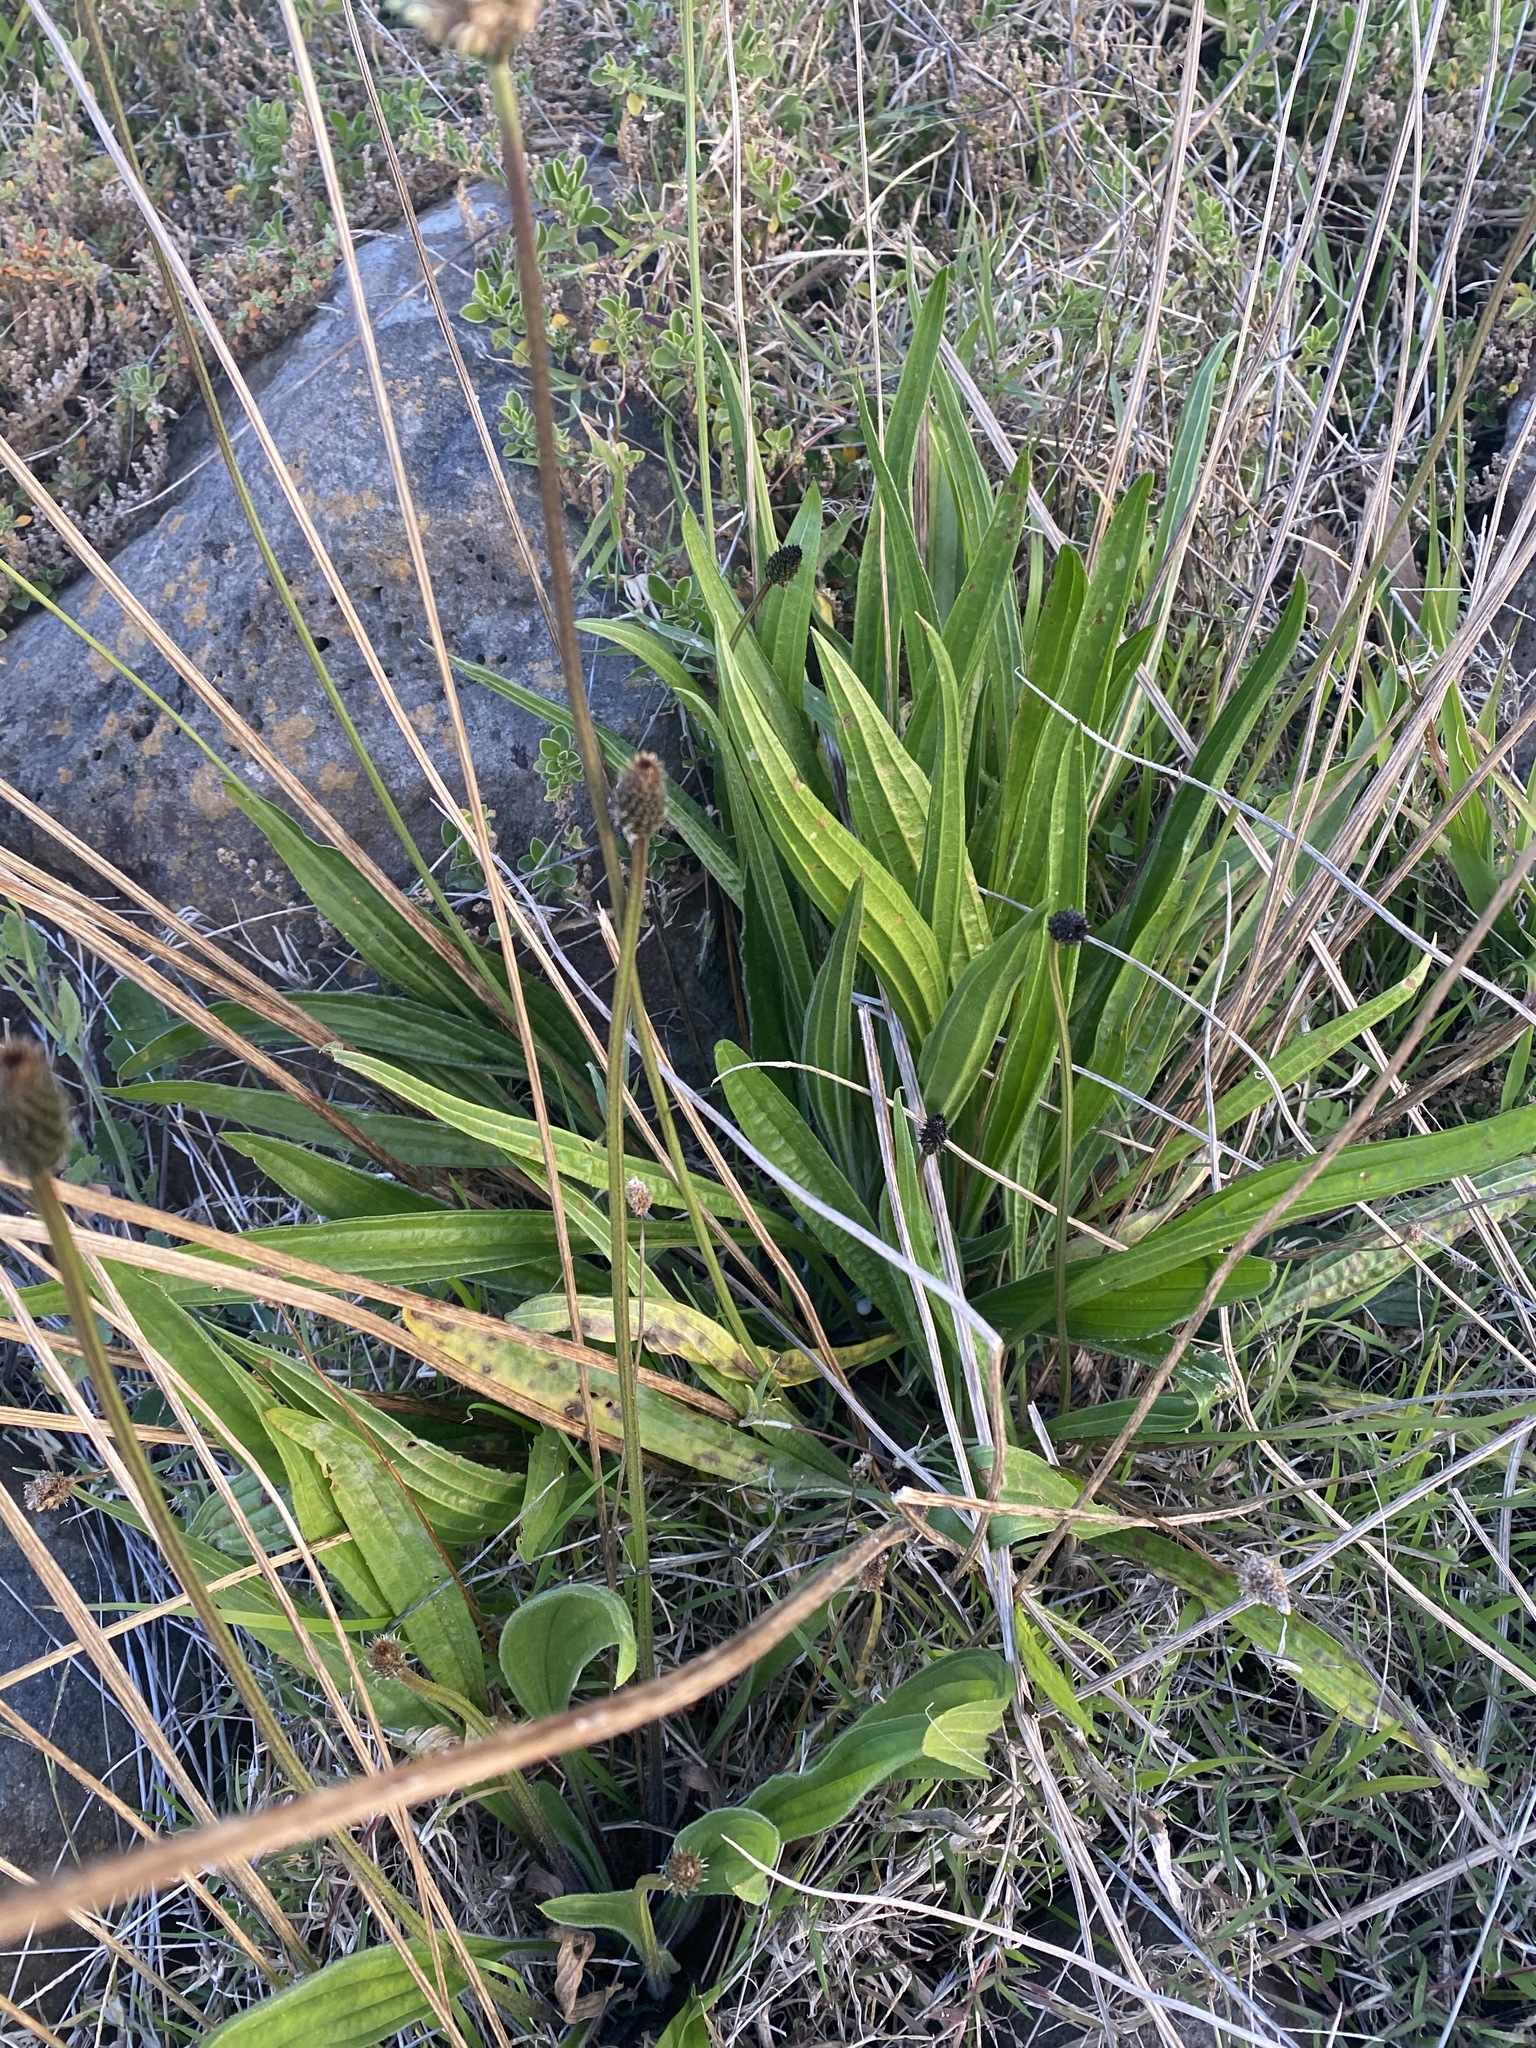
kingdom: Plantae
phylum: Tracheophyta
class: Magnoliopsida
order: Lamiales
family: Plantaginaceae
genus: Plantago
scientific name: Plantago lanceolata
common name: Ribwort plantain
